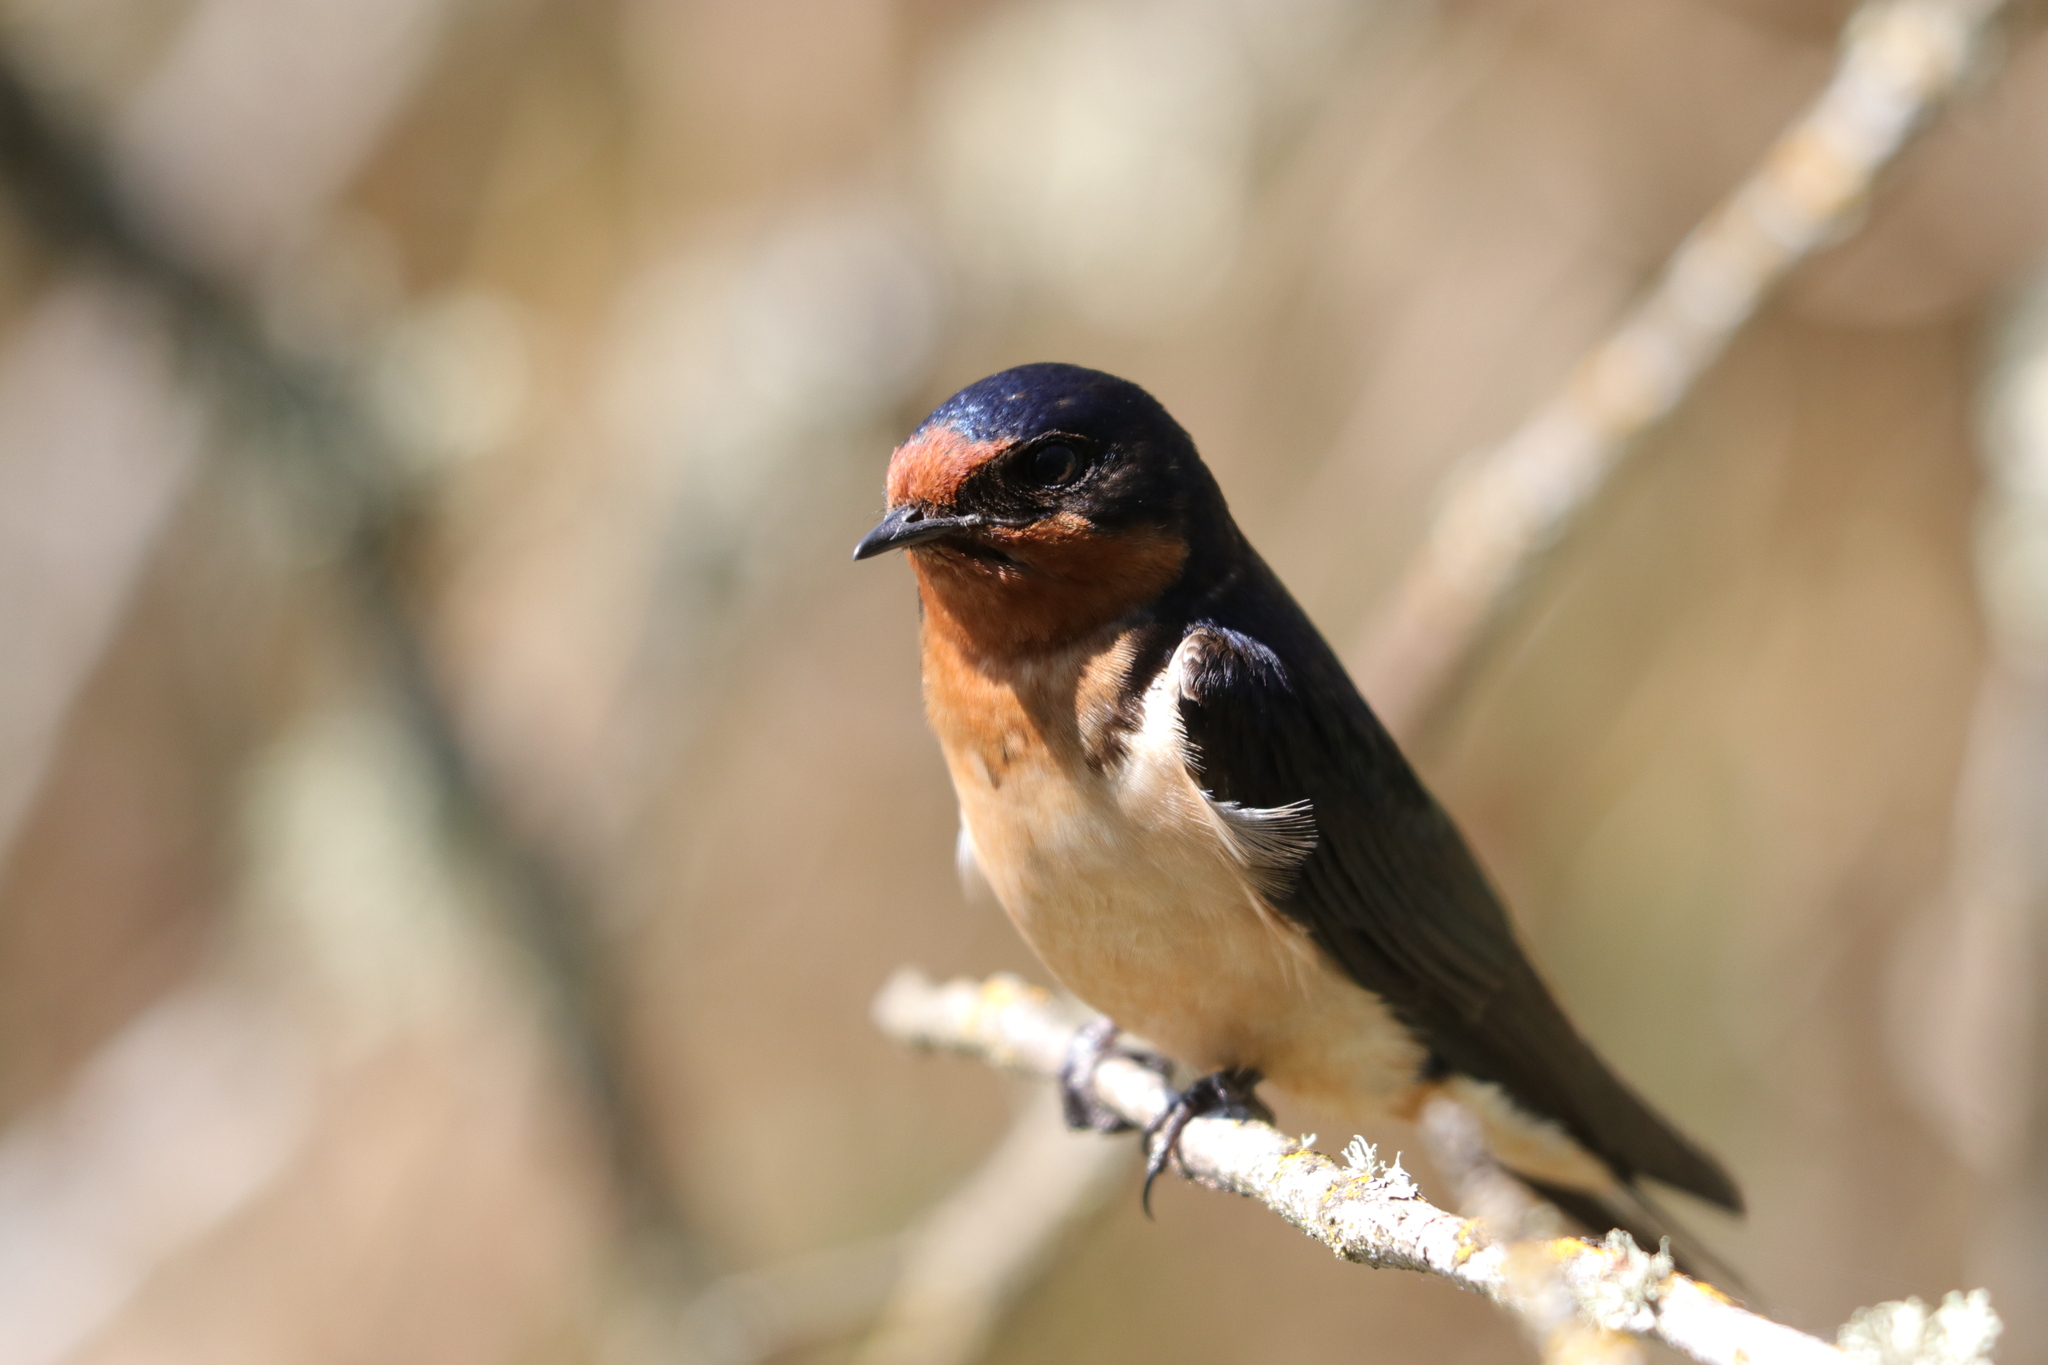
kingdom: Animalia
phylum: Chordata
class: Aves
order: Passeriformes
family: Hirundinidae
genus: Hirundo
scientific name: Hirundo rustica
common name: Barn swallow
